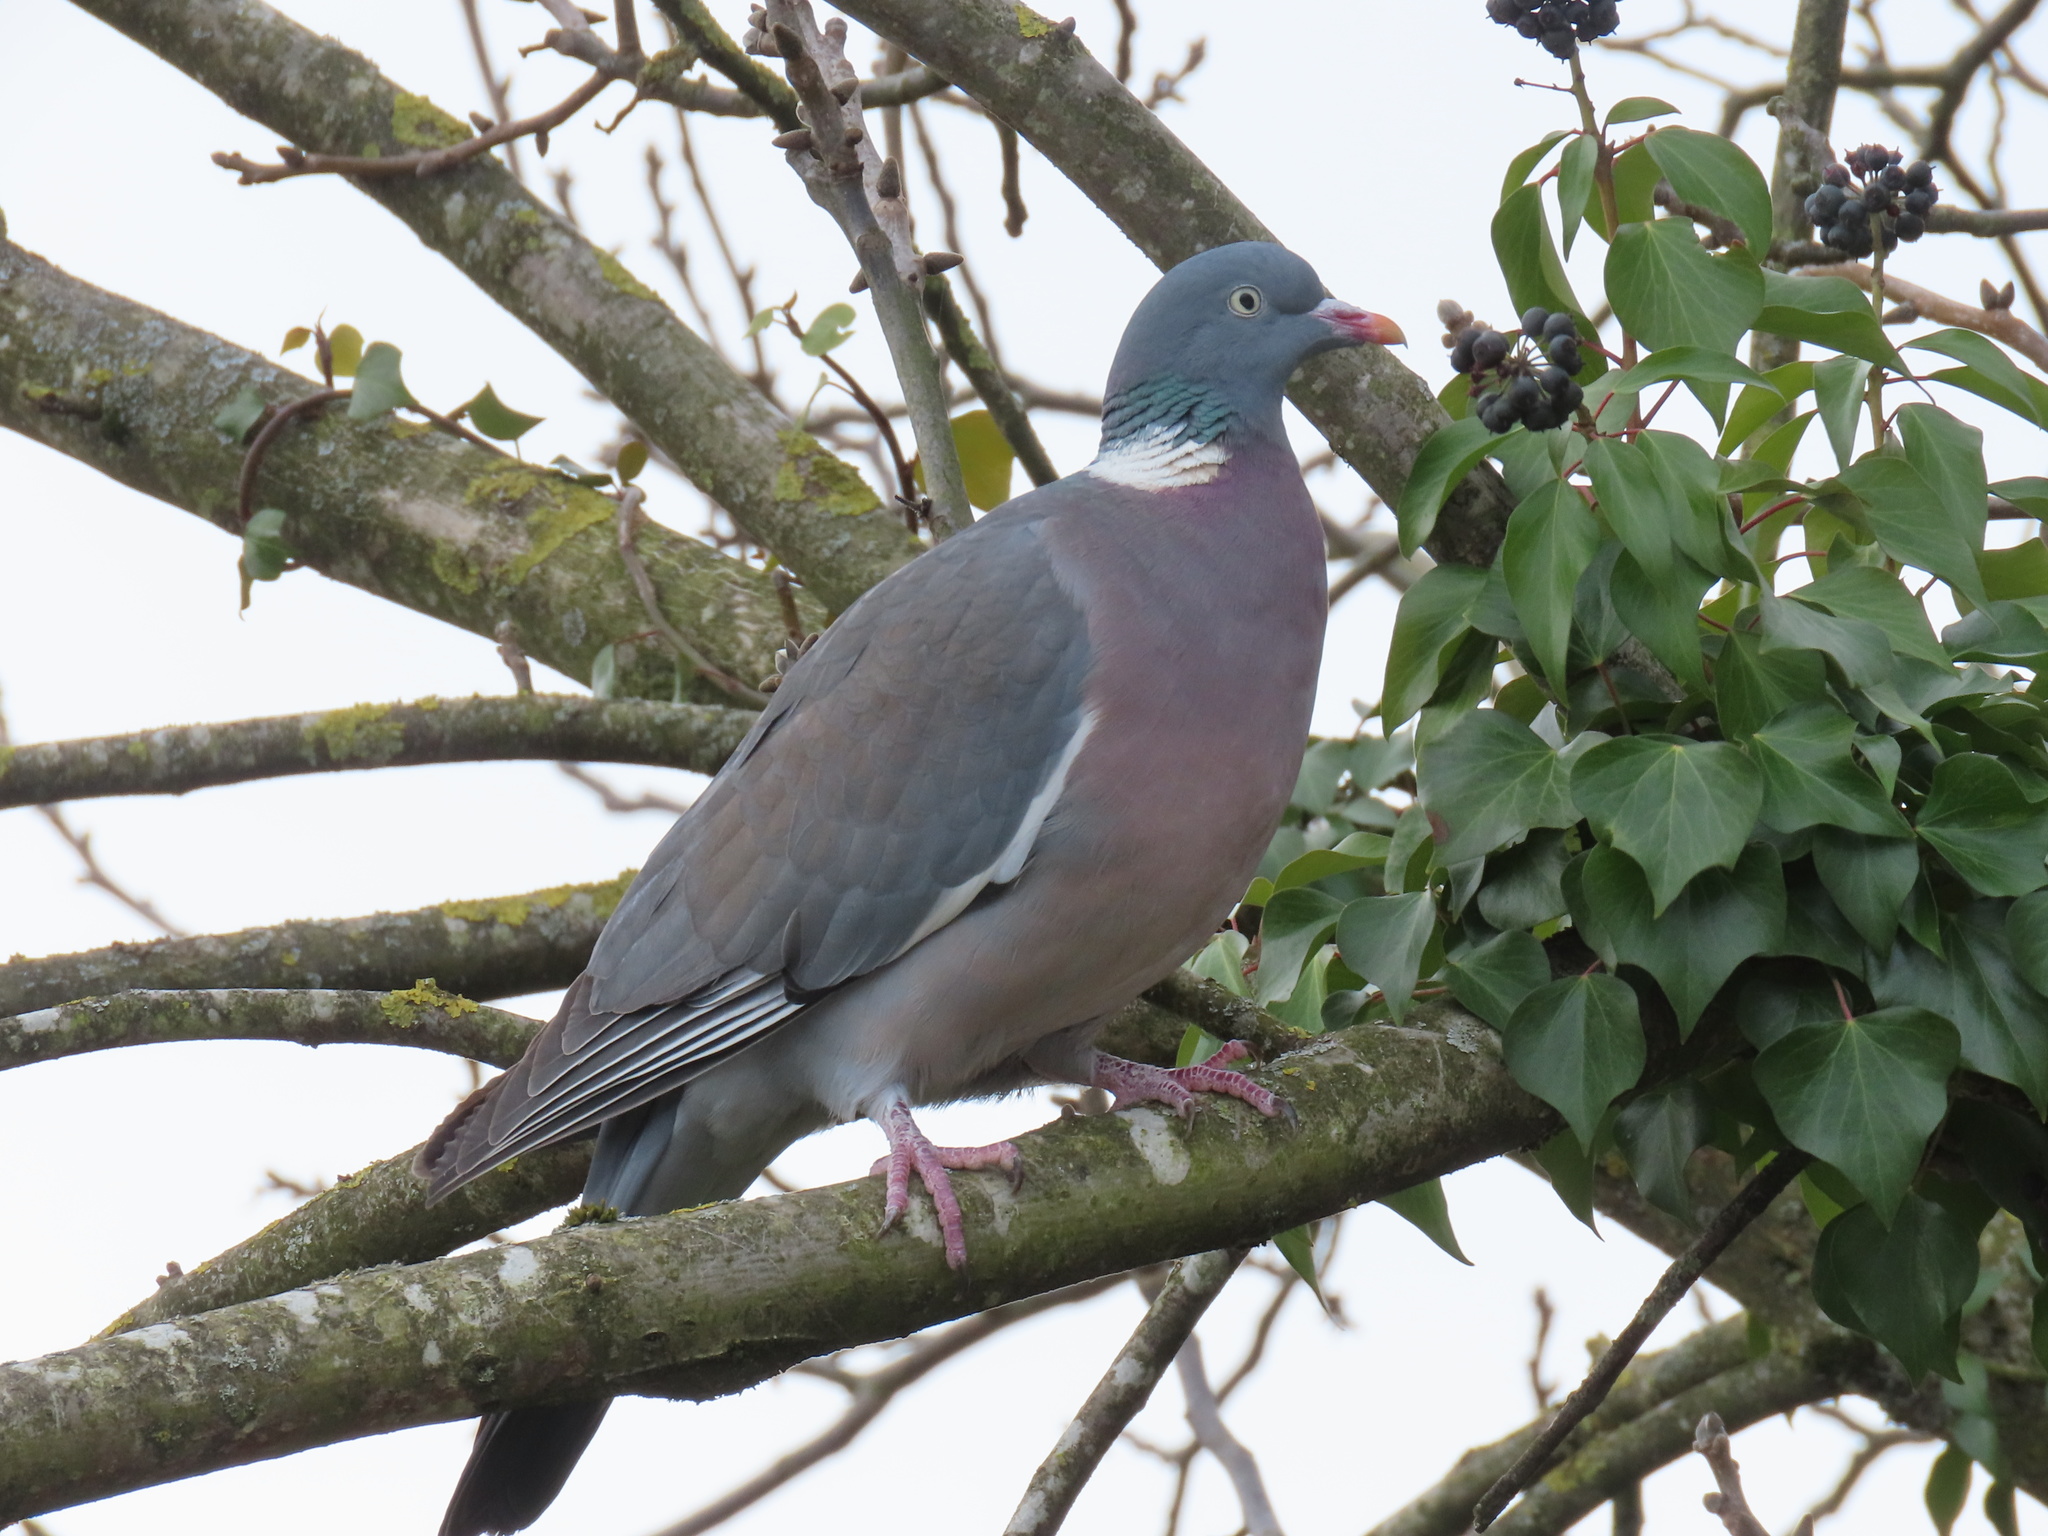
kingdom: Animalia
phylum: Chordata
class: Aves
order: Columbiformes
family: Columbidae
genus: Columba
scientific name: Columba palumbus
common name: Common wood pigeon
